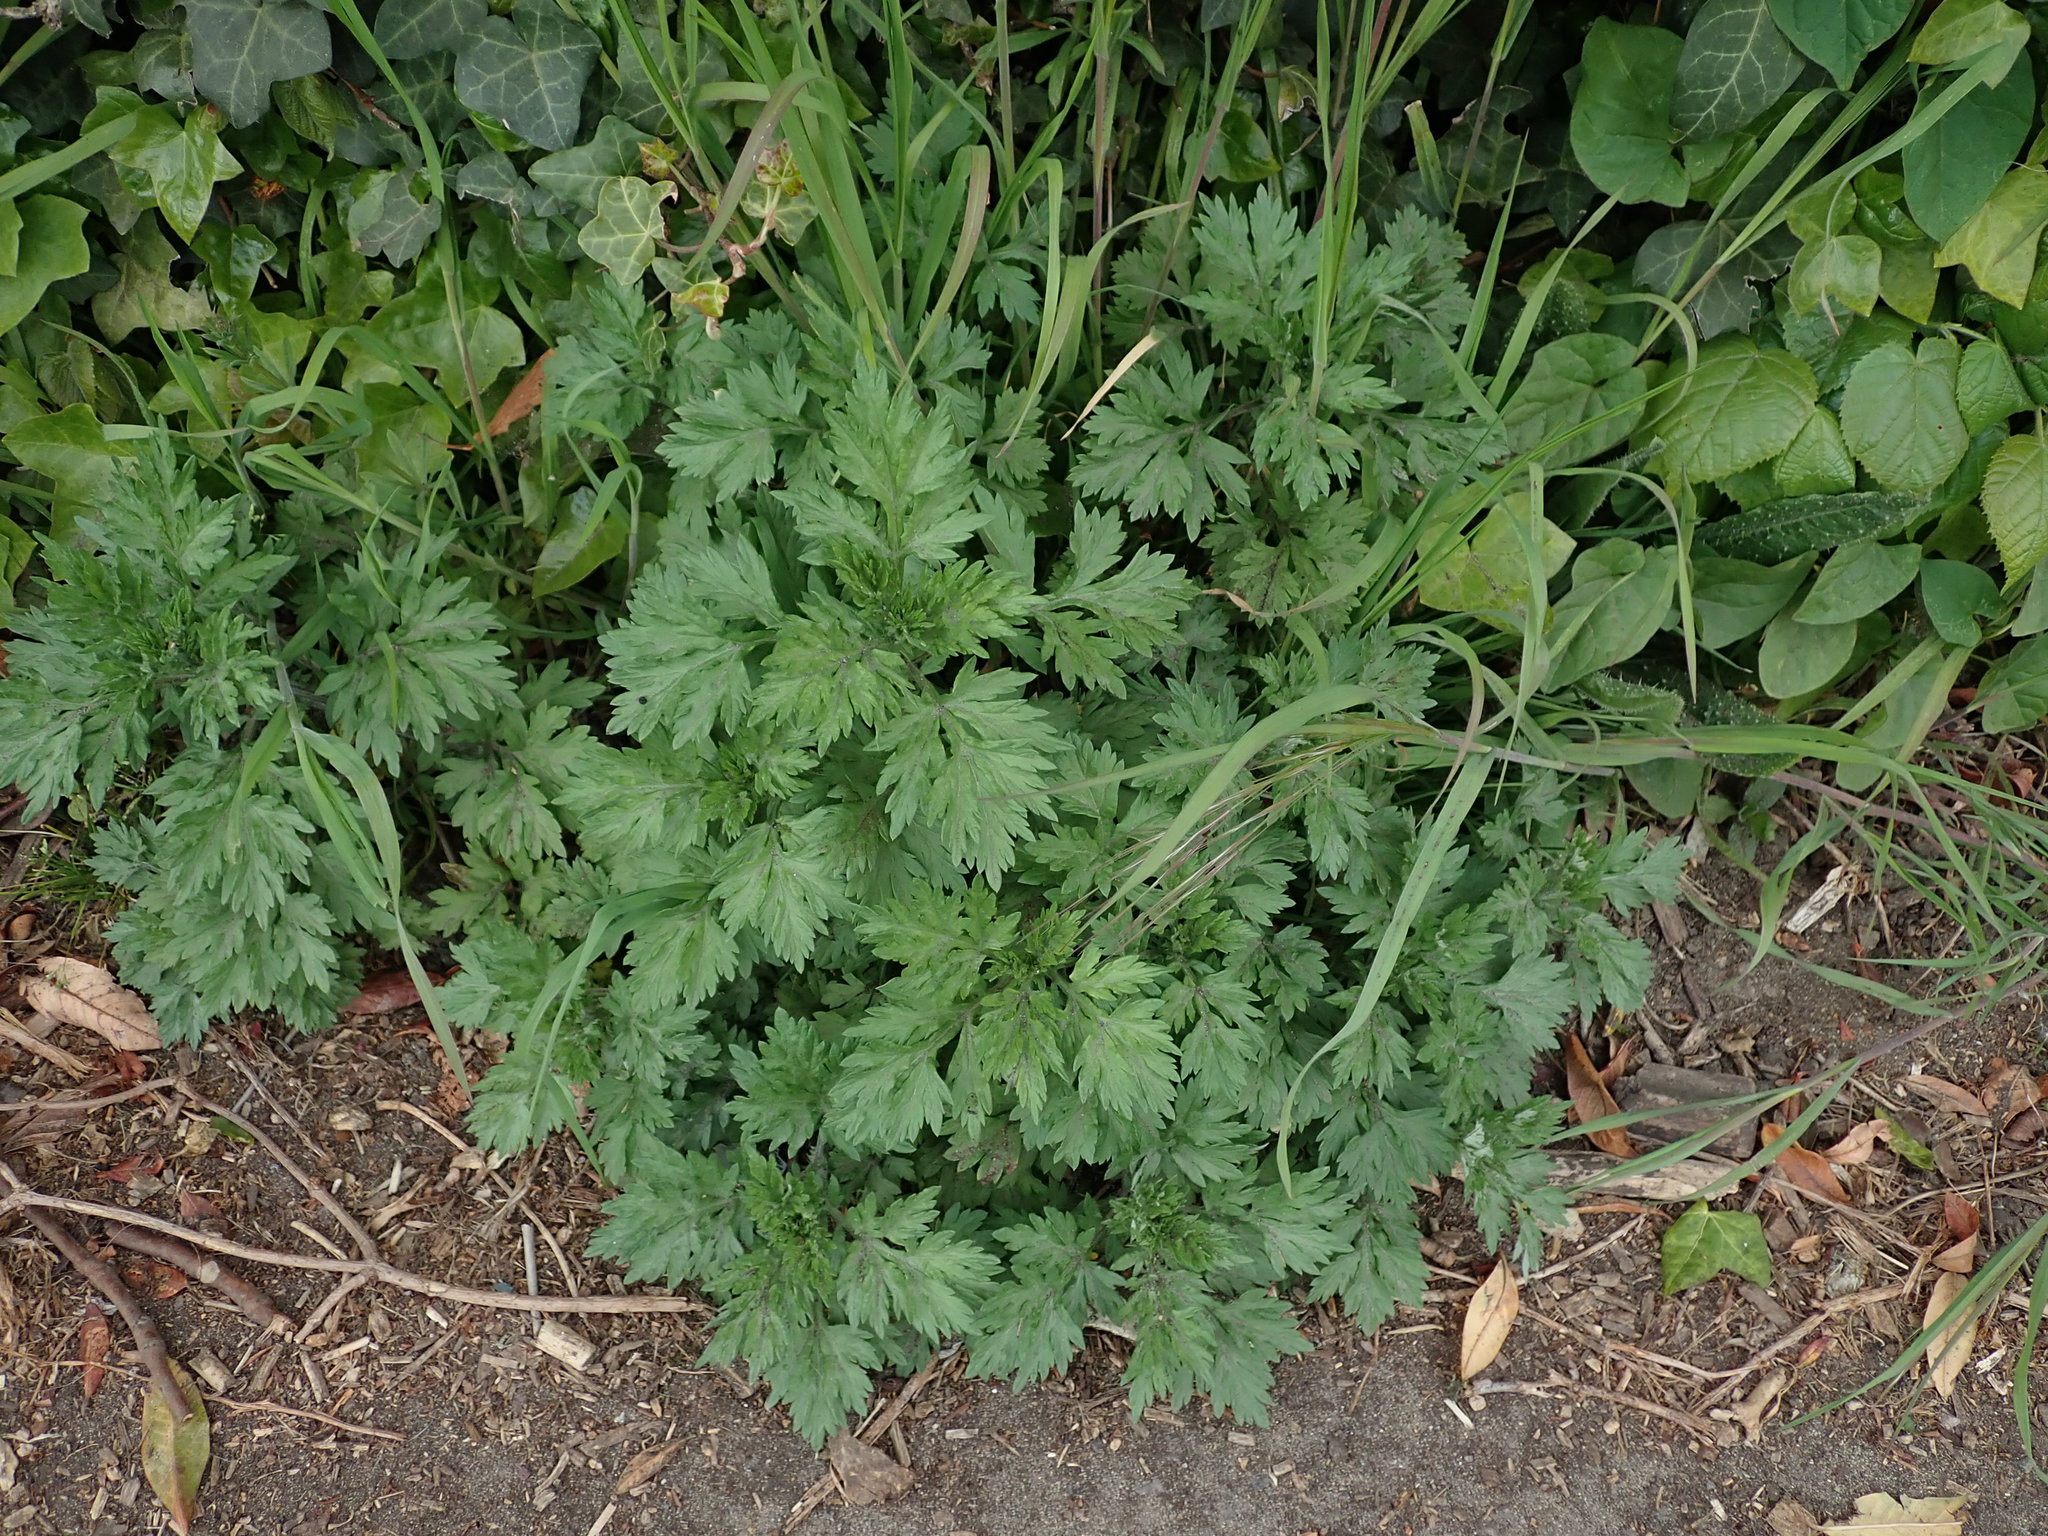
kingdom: Plantae
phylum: Tracheophyta
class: Magnoliopsida
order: Asterales
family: Asteraceae
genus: Artemisia
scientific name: Artemisia vulgaris
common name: Mugwort
